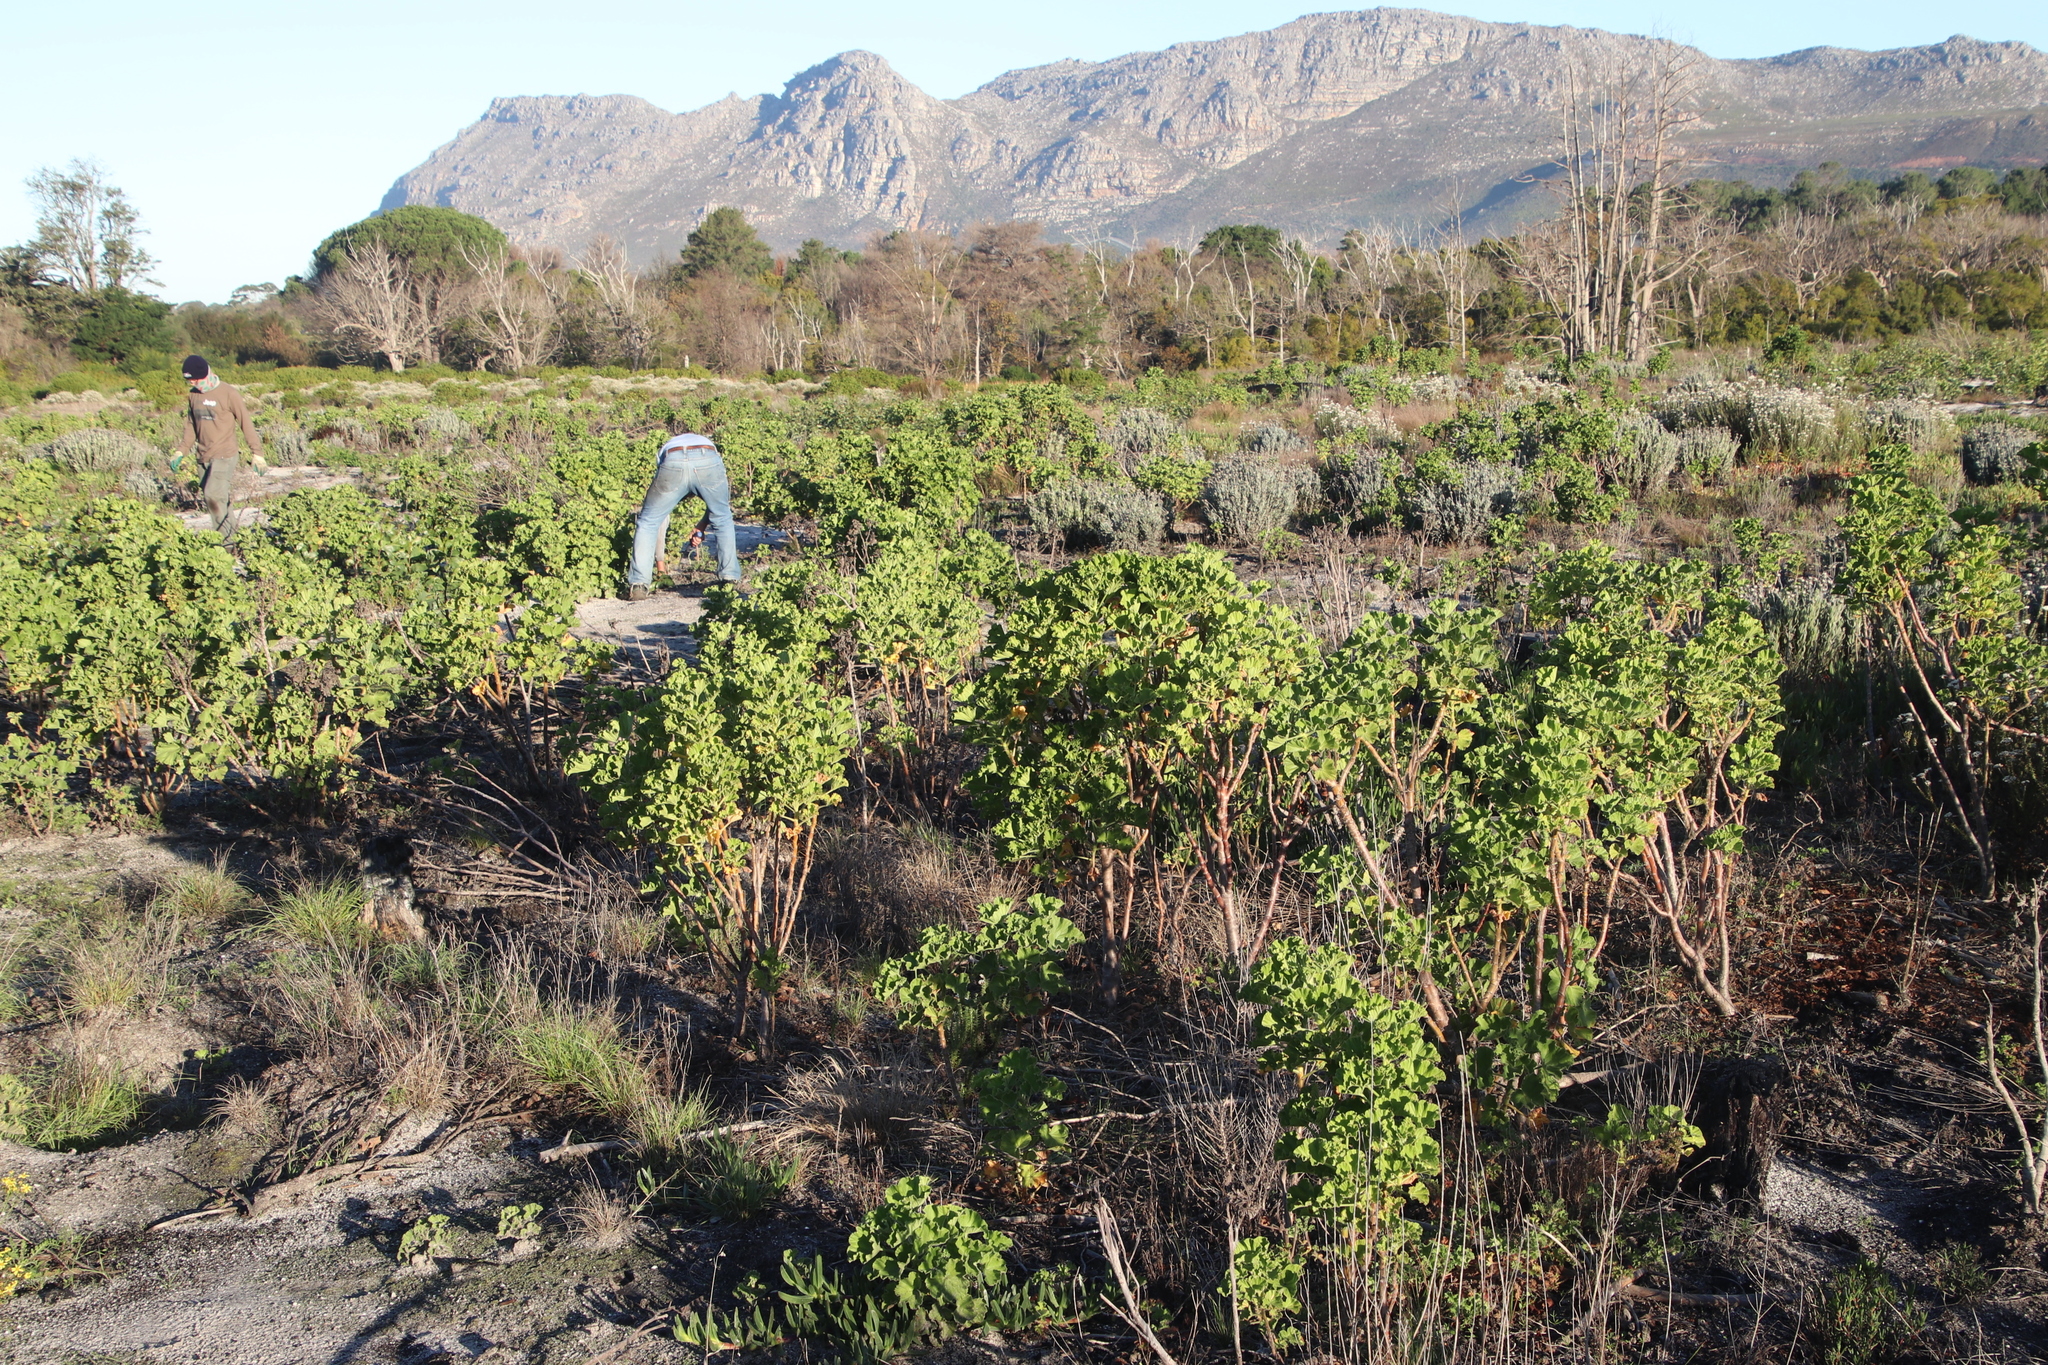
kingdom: Plantae
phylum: Tracheophyta
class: Magnoliopsida
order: Geraniales
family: Geraniaceae
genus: Pelargonium
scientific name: Pelargonium cucullatum
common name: Tree pelargonium
